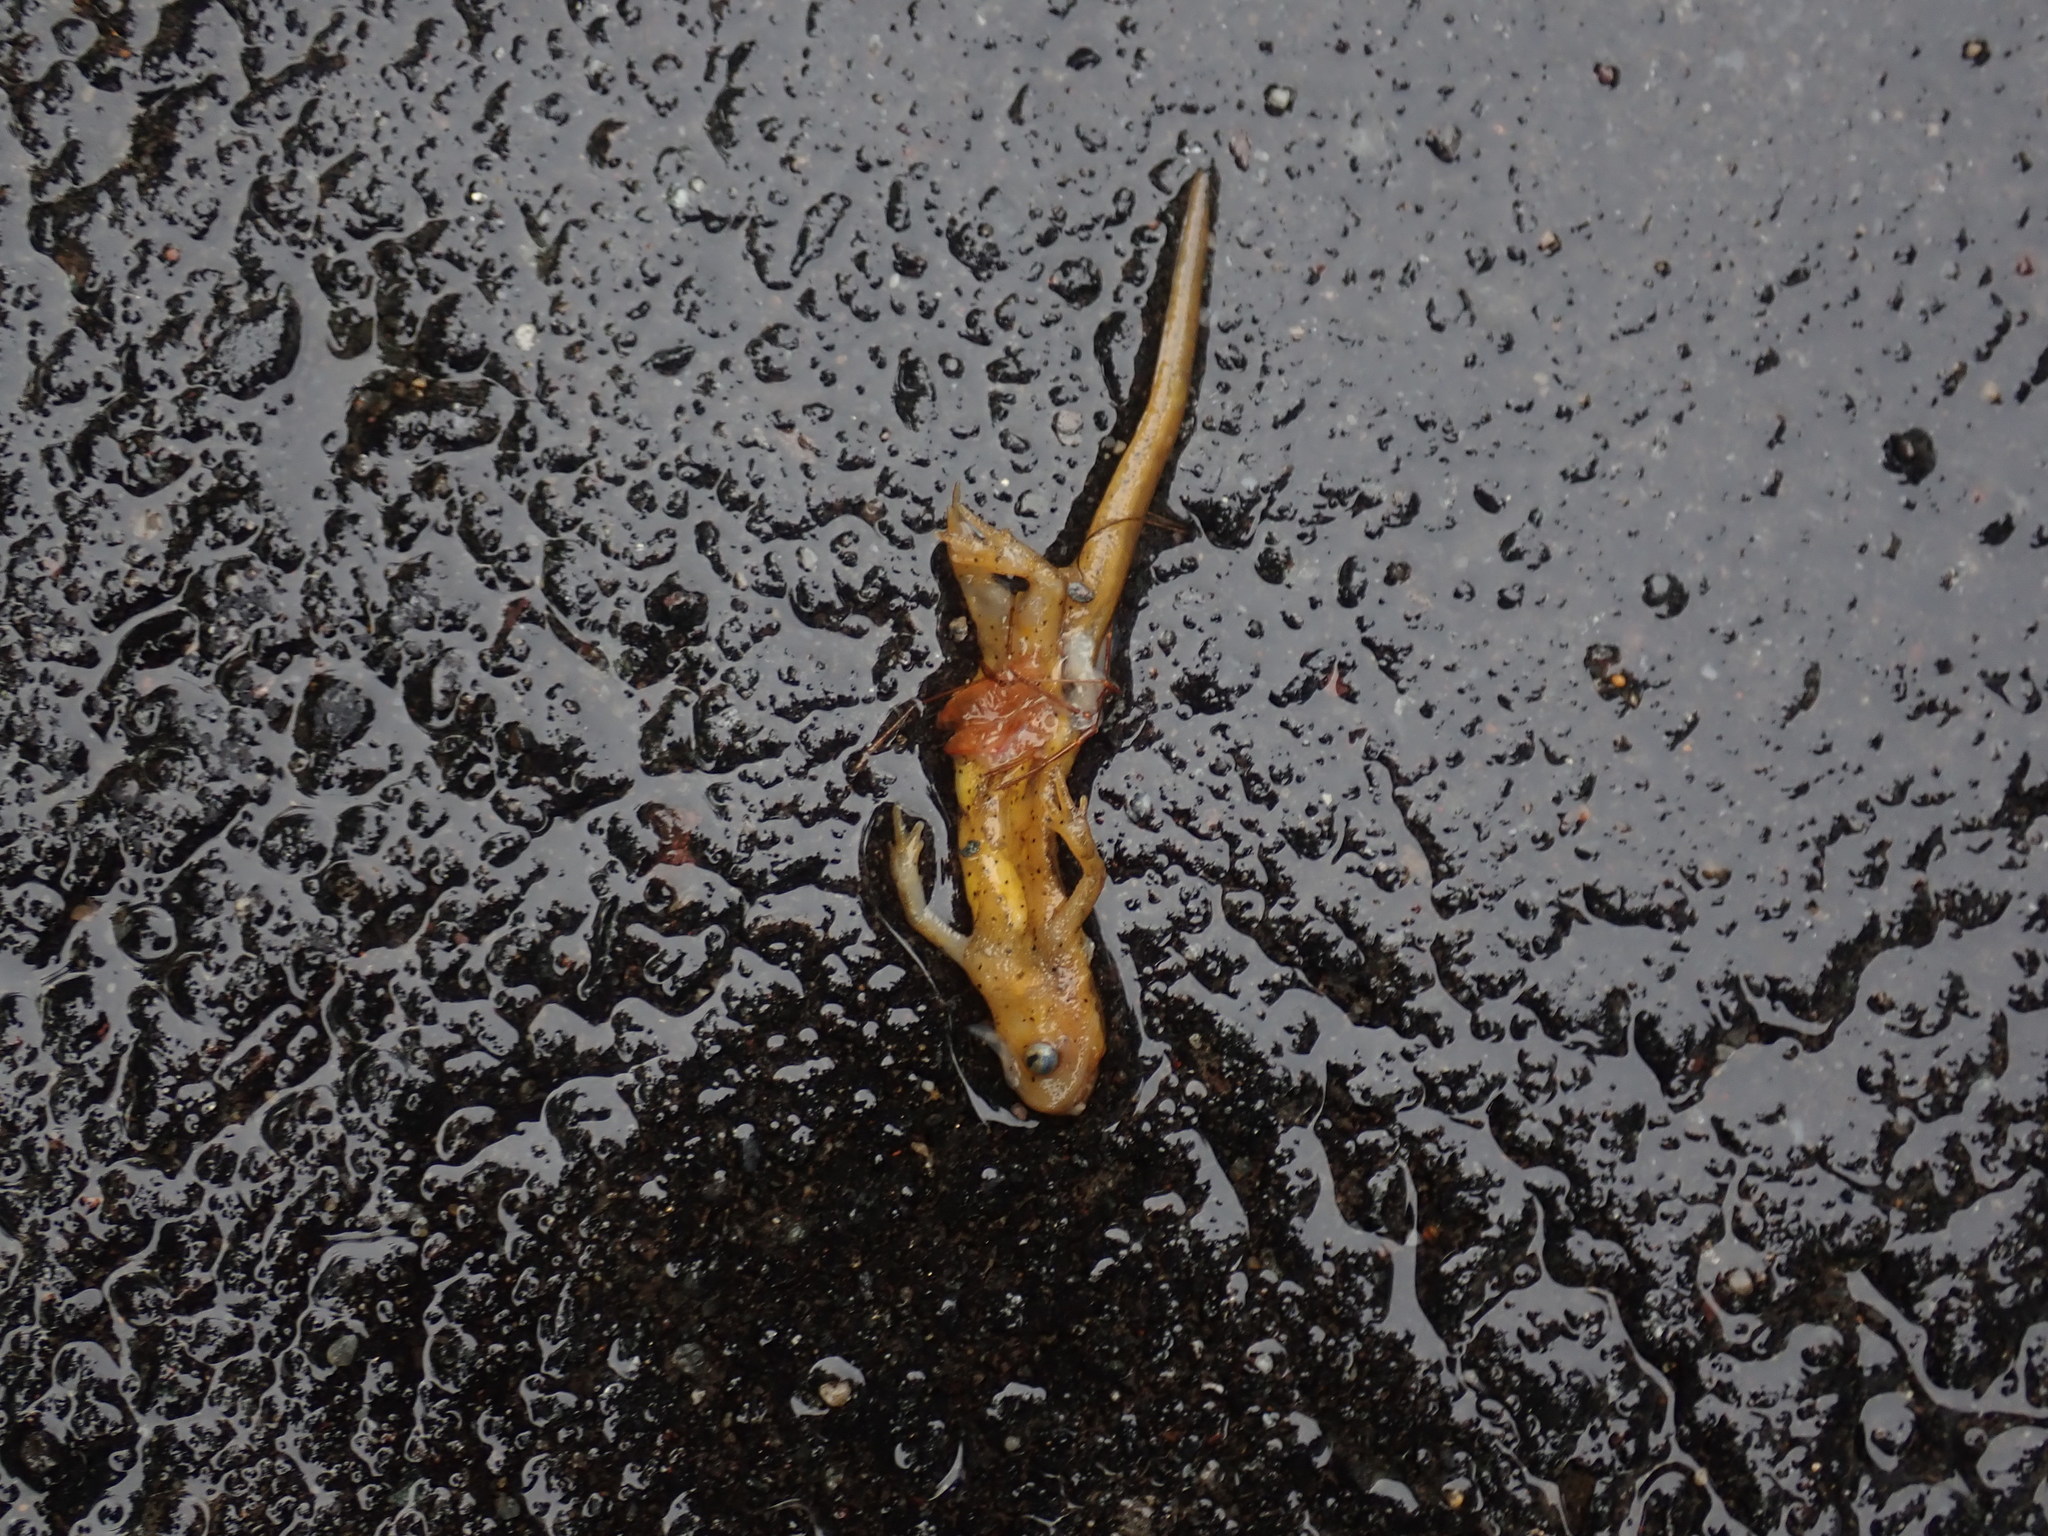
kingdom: Animalia
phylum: Chordata
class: Amphibia
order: Caudata
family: Salamandridae
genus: Notophthalmus
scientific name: Notophthalmus viridescens
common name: Eastern newt
